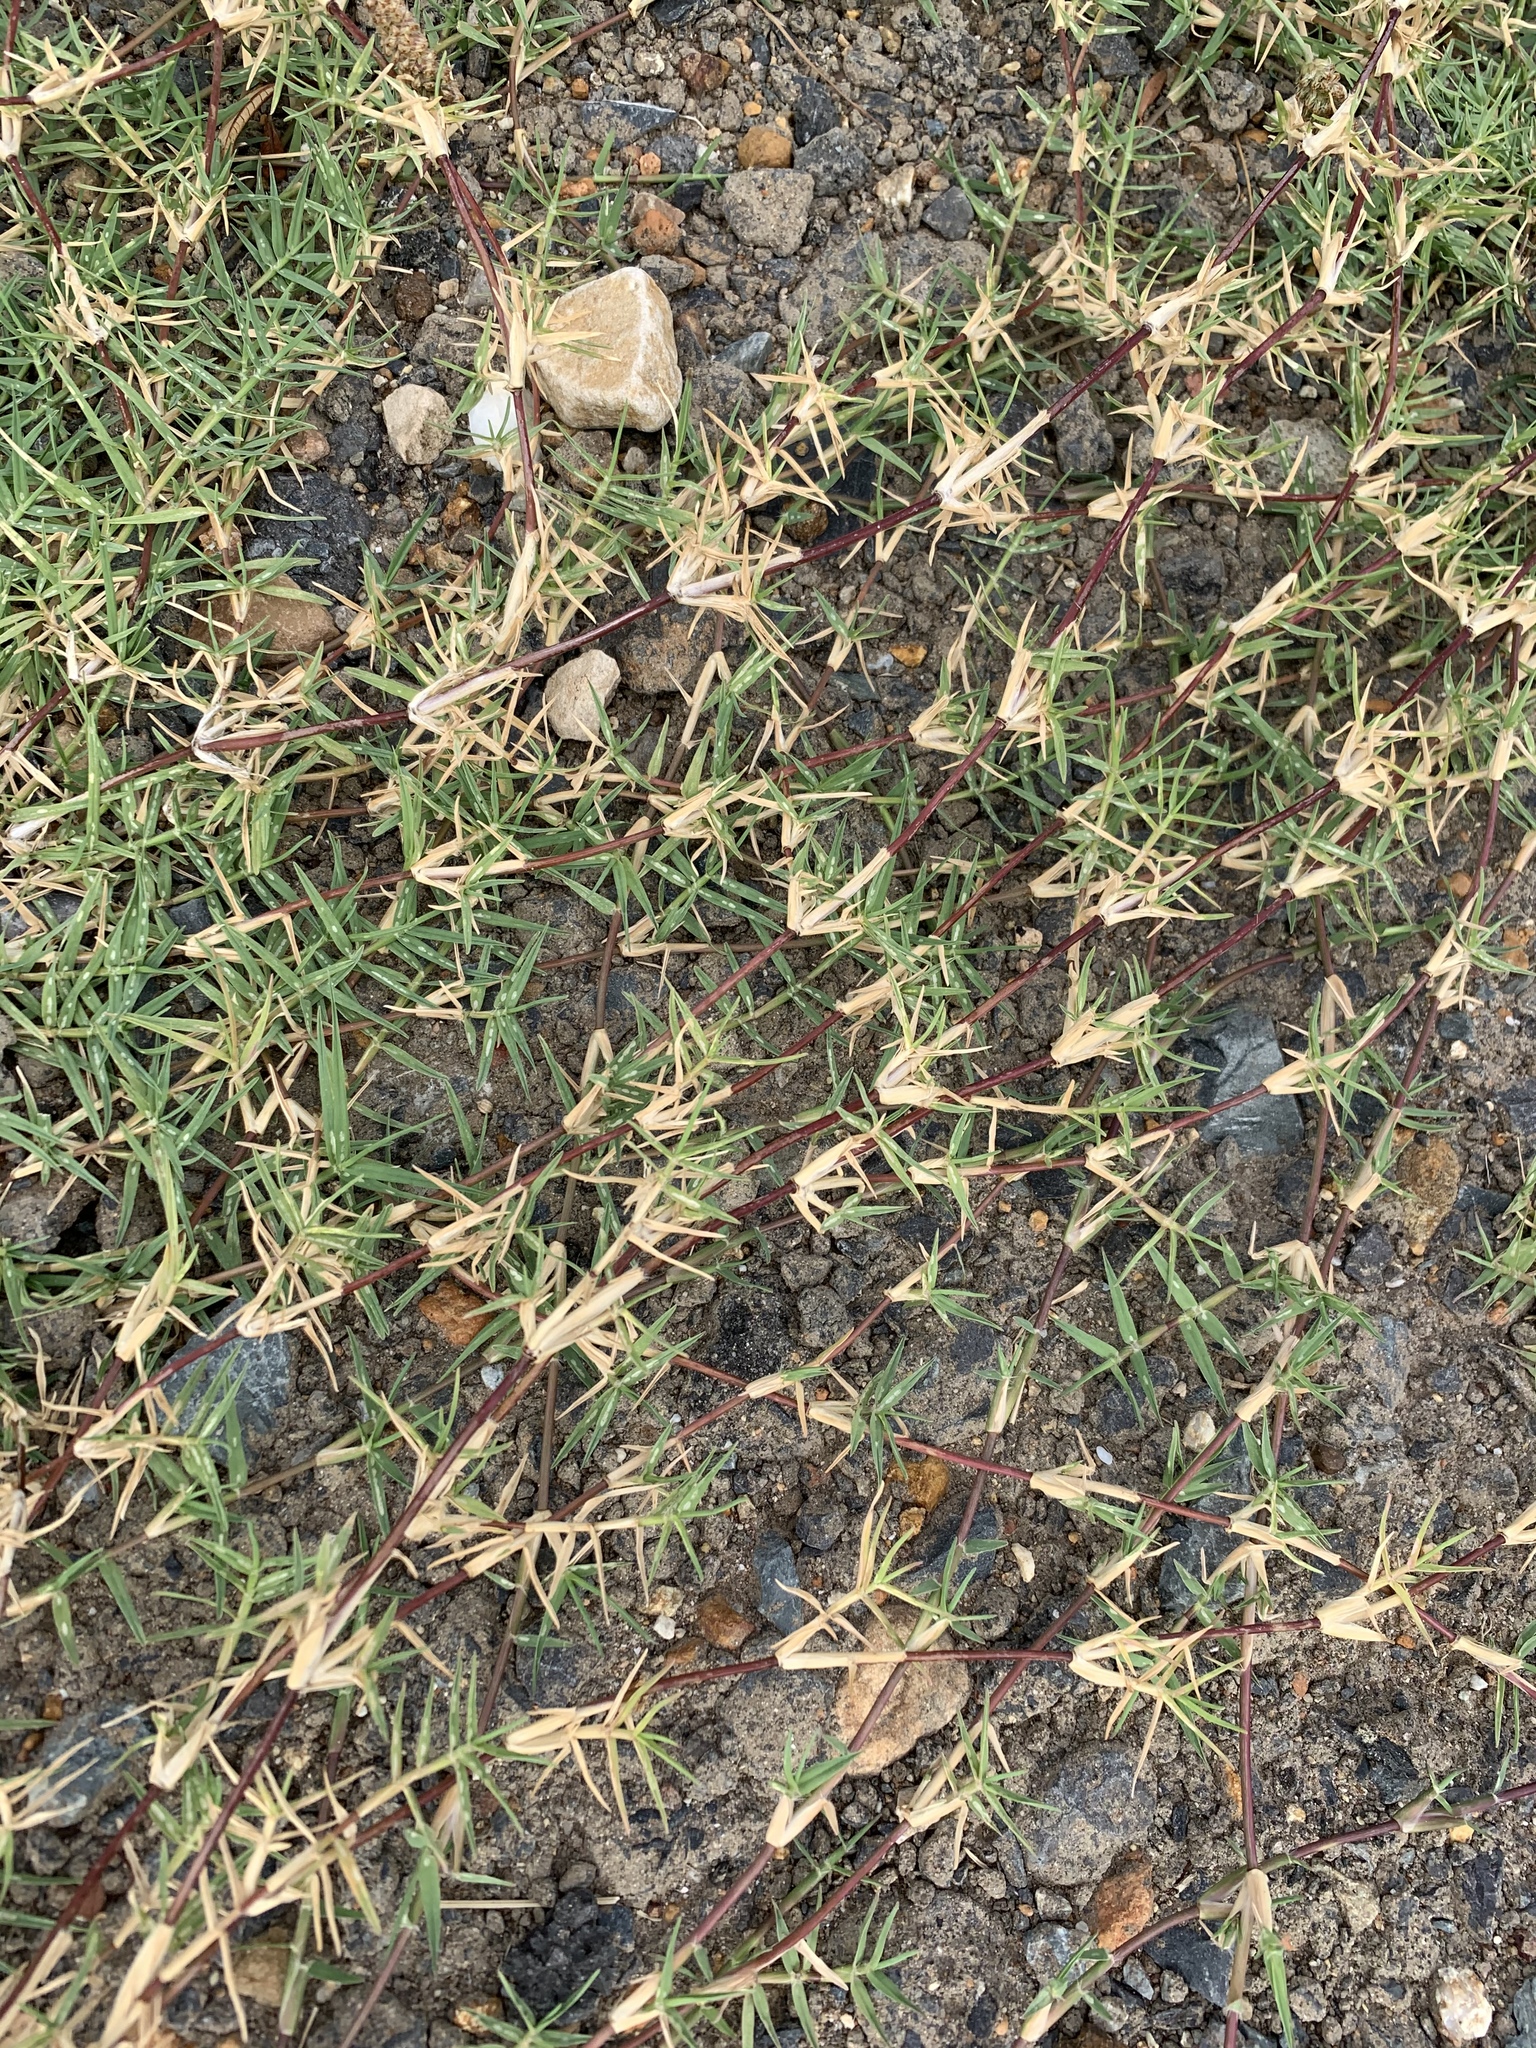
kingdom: Plantae
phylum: Tracheophyta
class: Liliopsida
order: Poales
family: Poaceae
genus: Cynodon
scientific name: Cynodon dactylon
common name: Bermuda grass
